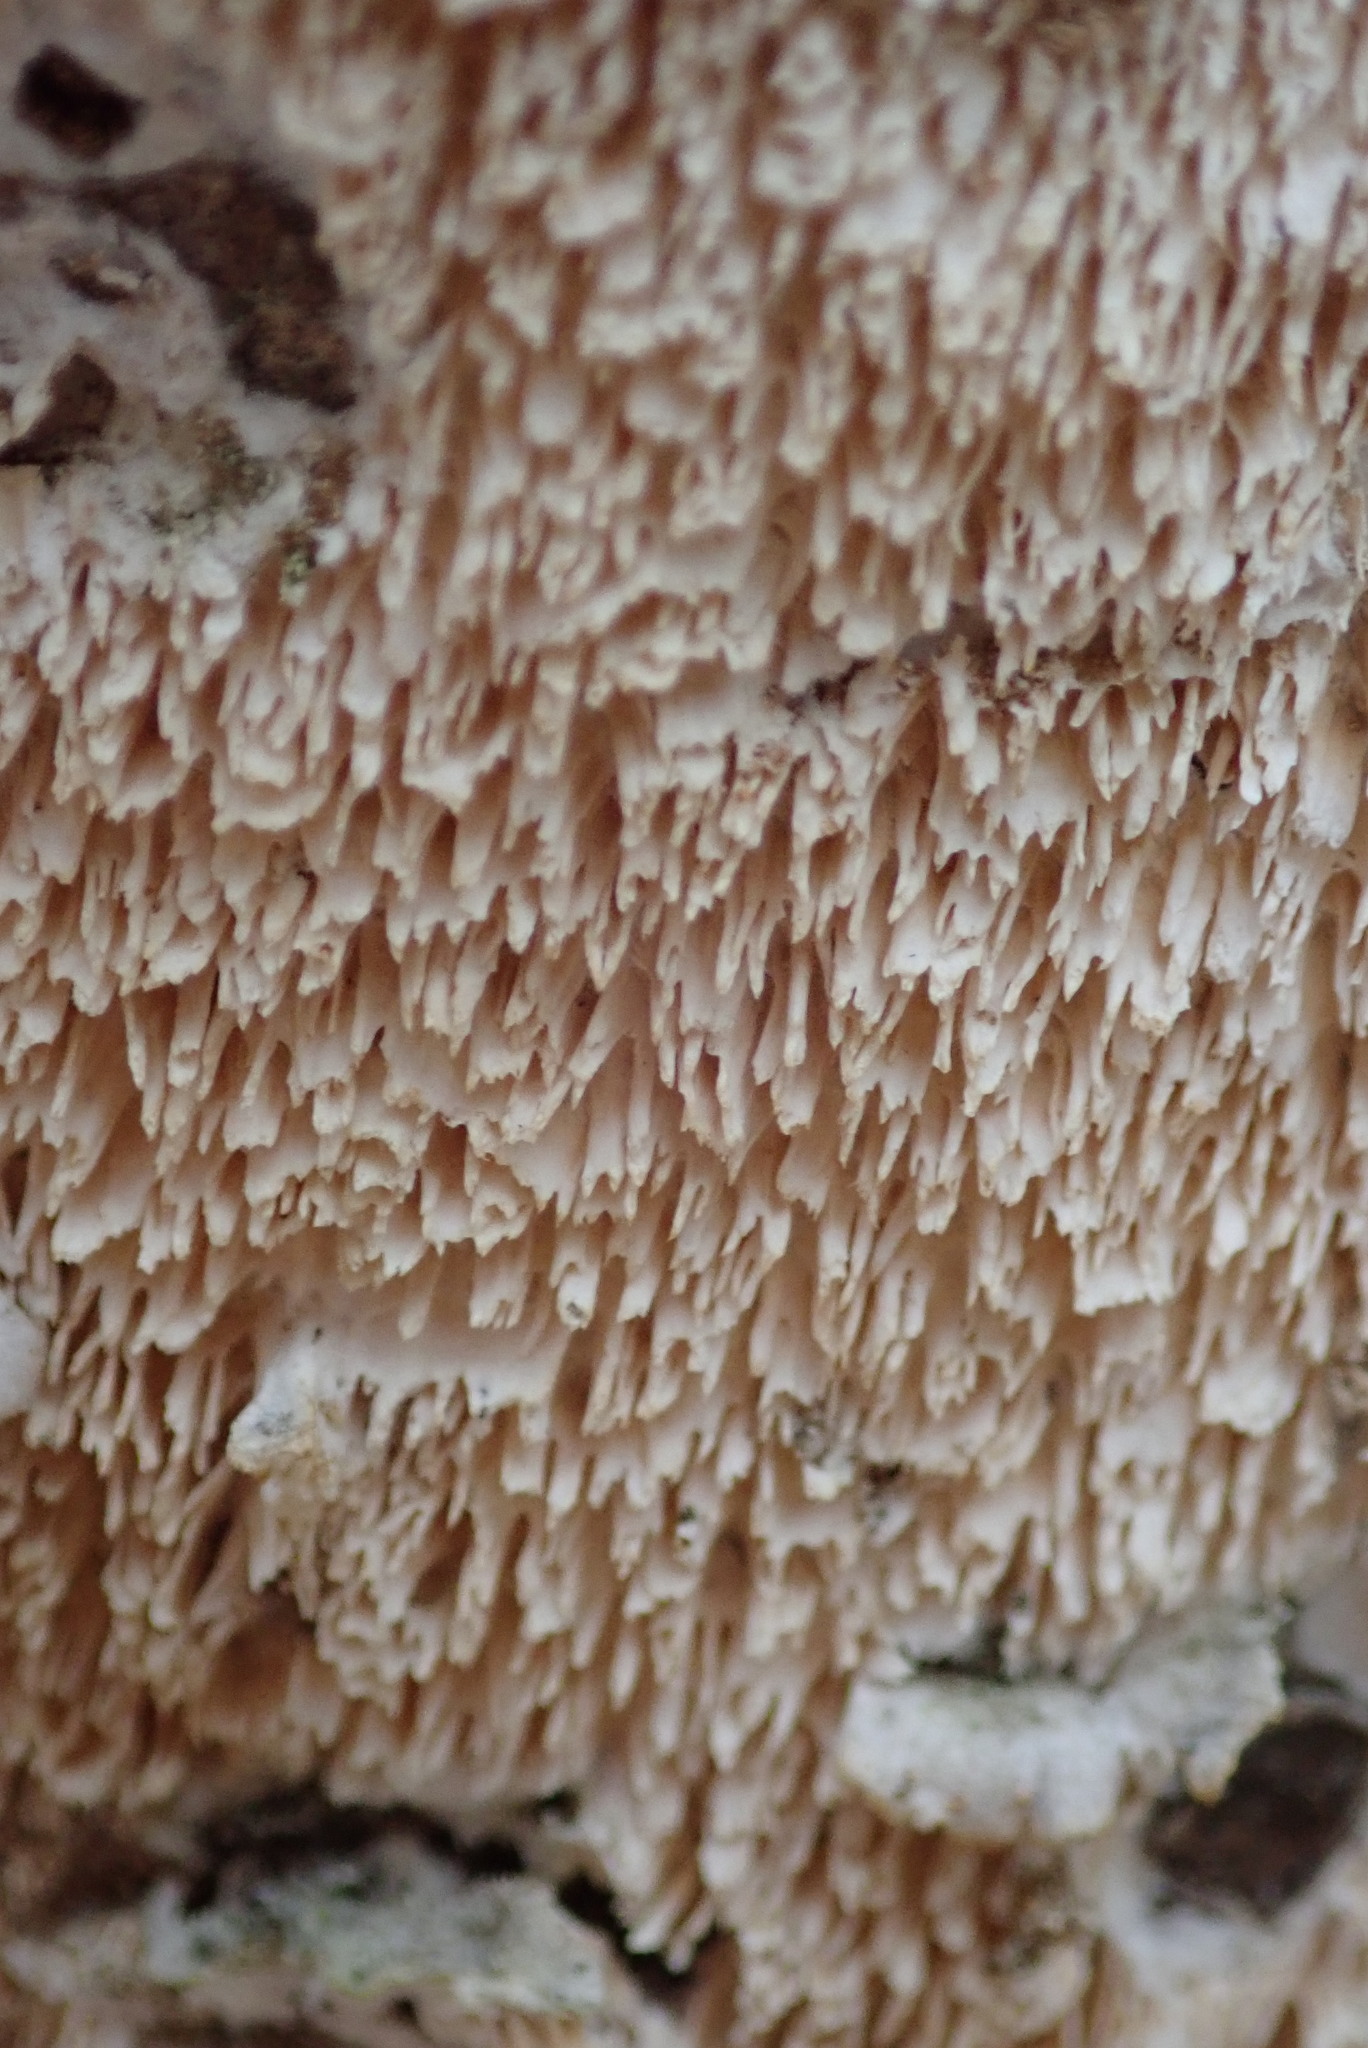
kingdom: Fungi
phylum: Basidiomycota
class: Agaricomycetes
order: Polyporales
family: Irpicaceae
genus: Irpex
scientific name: Irpex lacteus
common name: Milk-white toothed polypore
